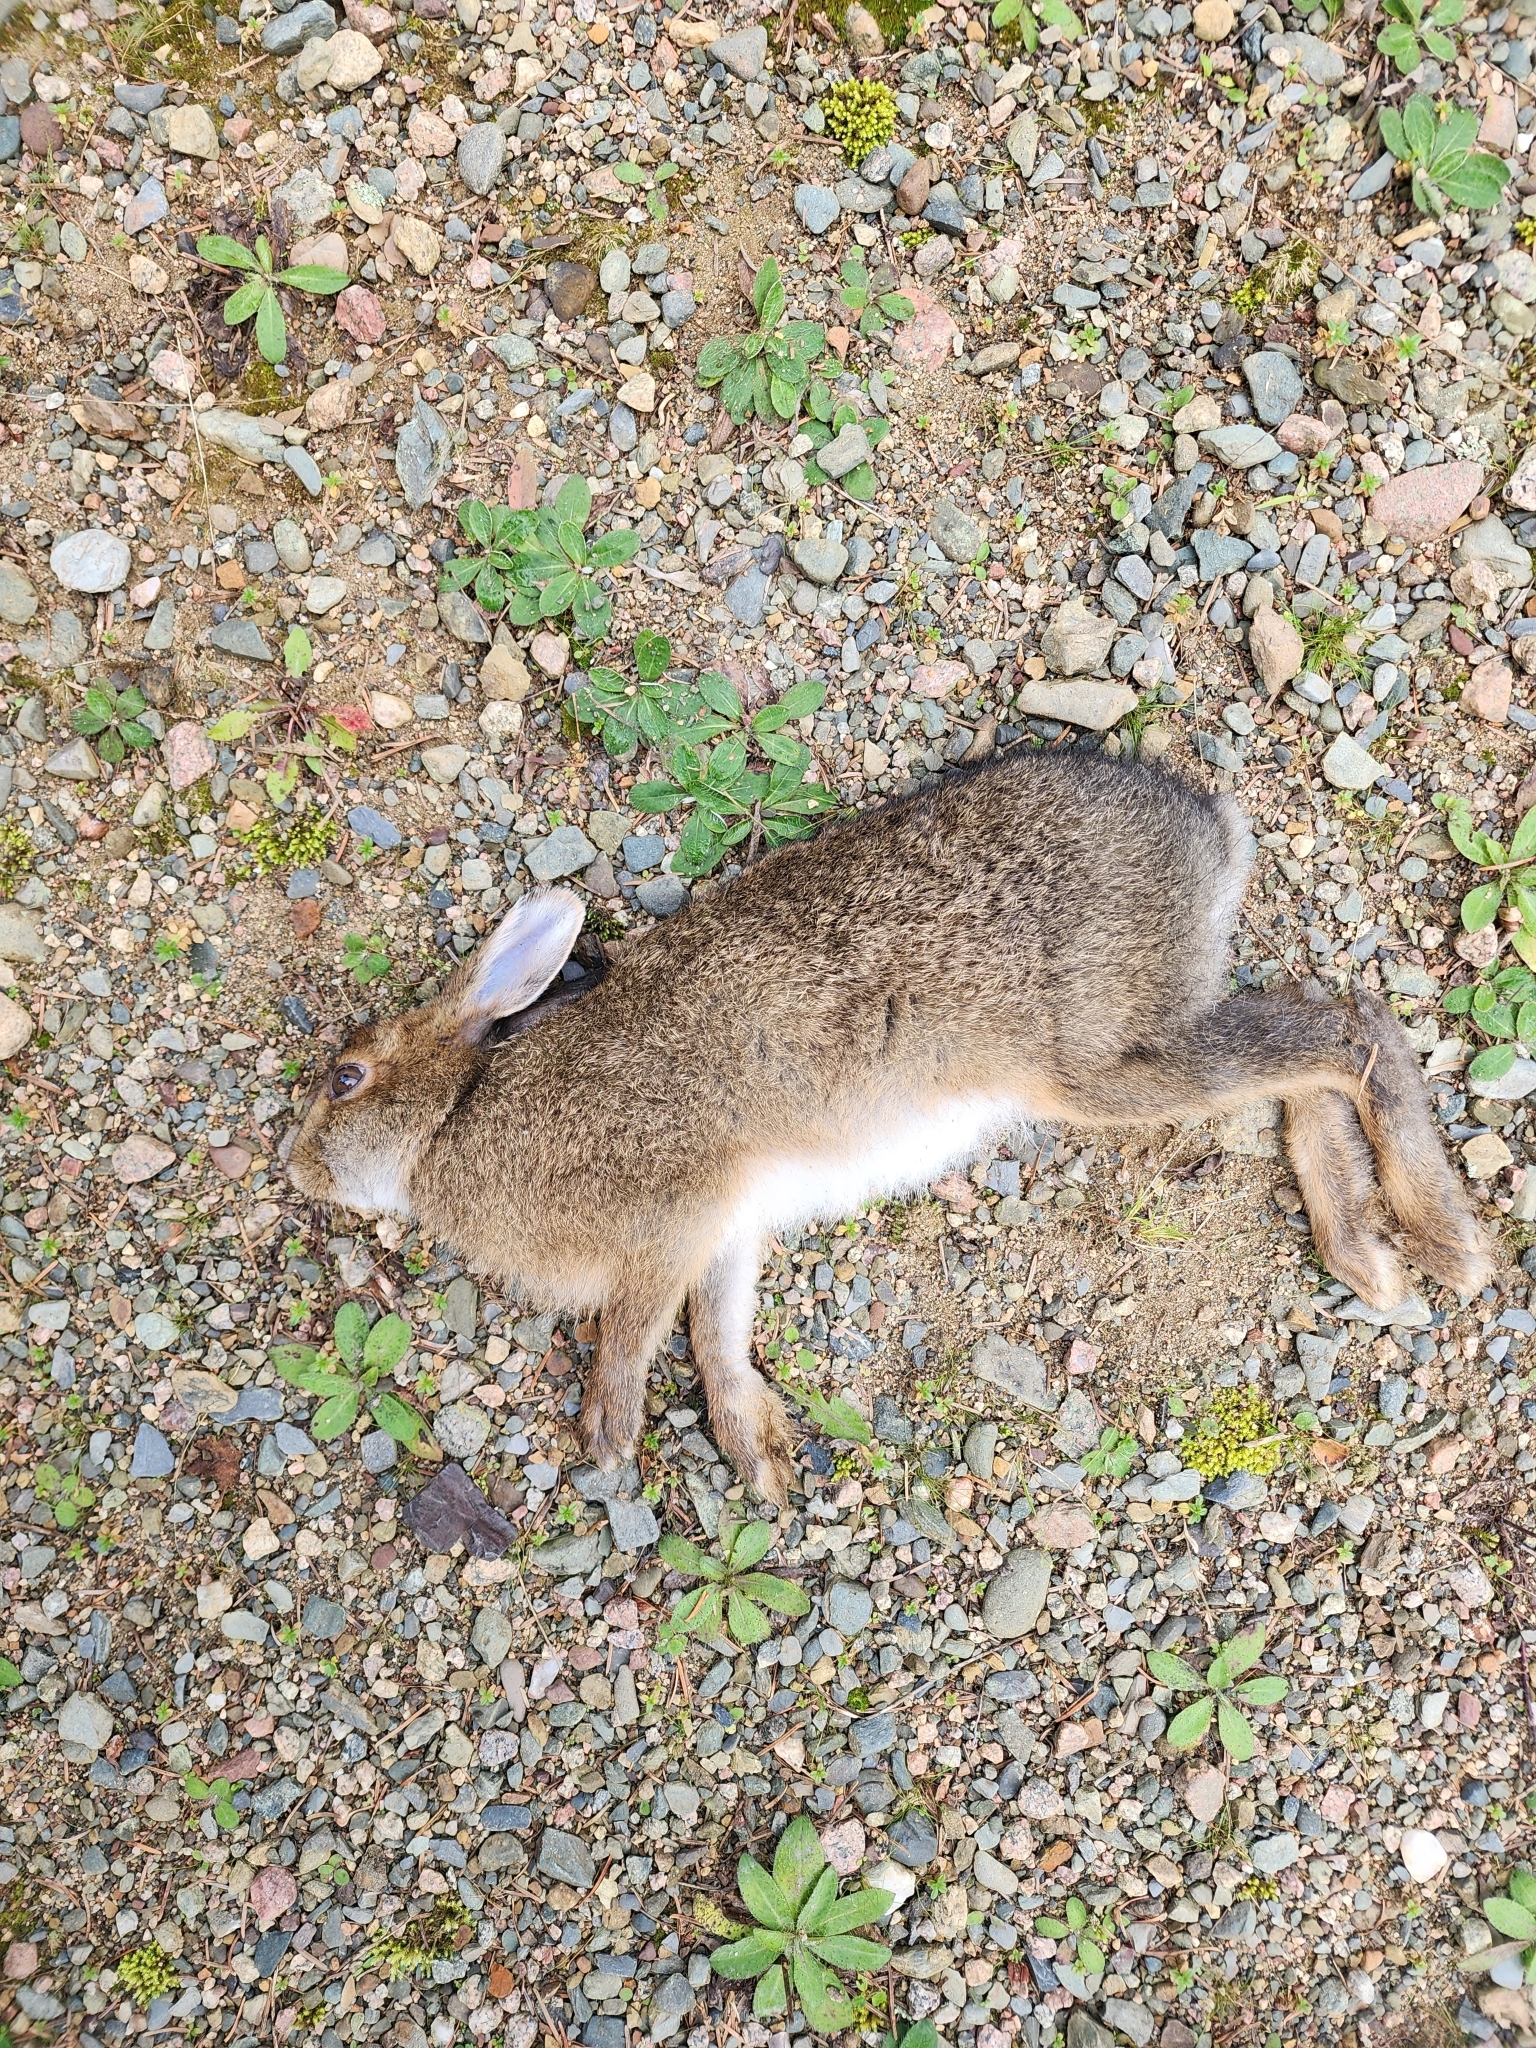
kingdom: Animalia
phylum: Chordata
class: Mammalia
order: Lagomorpha
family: Leporidae
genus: Lepus
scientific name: Lepus americanus
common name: Snowshoe hare
